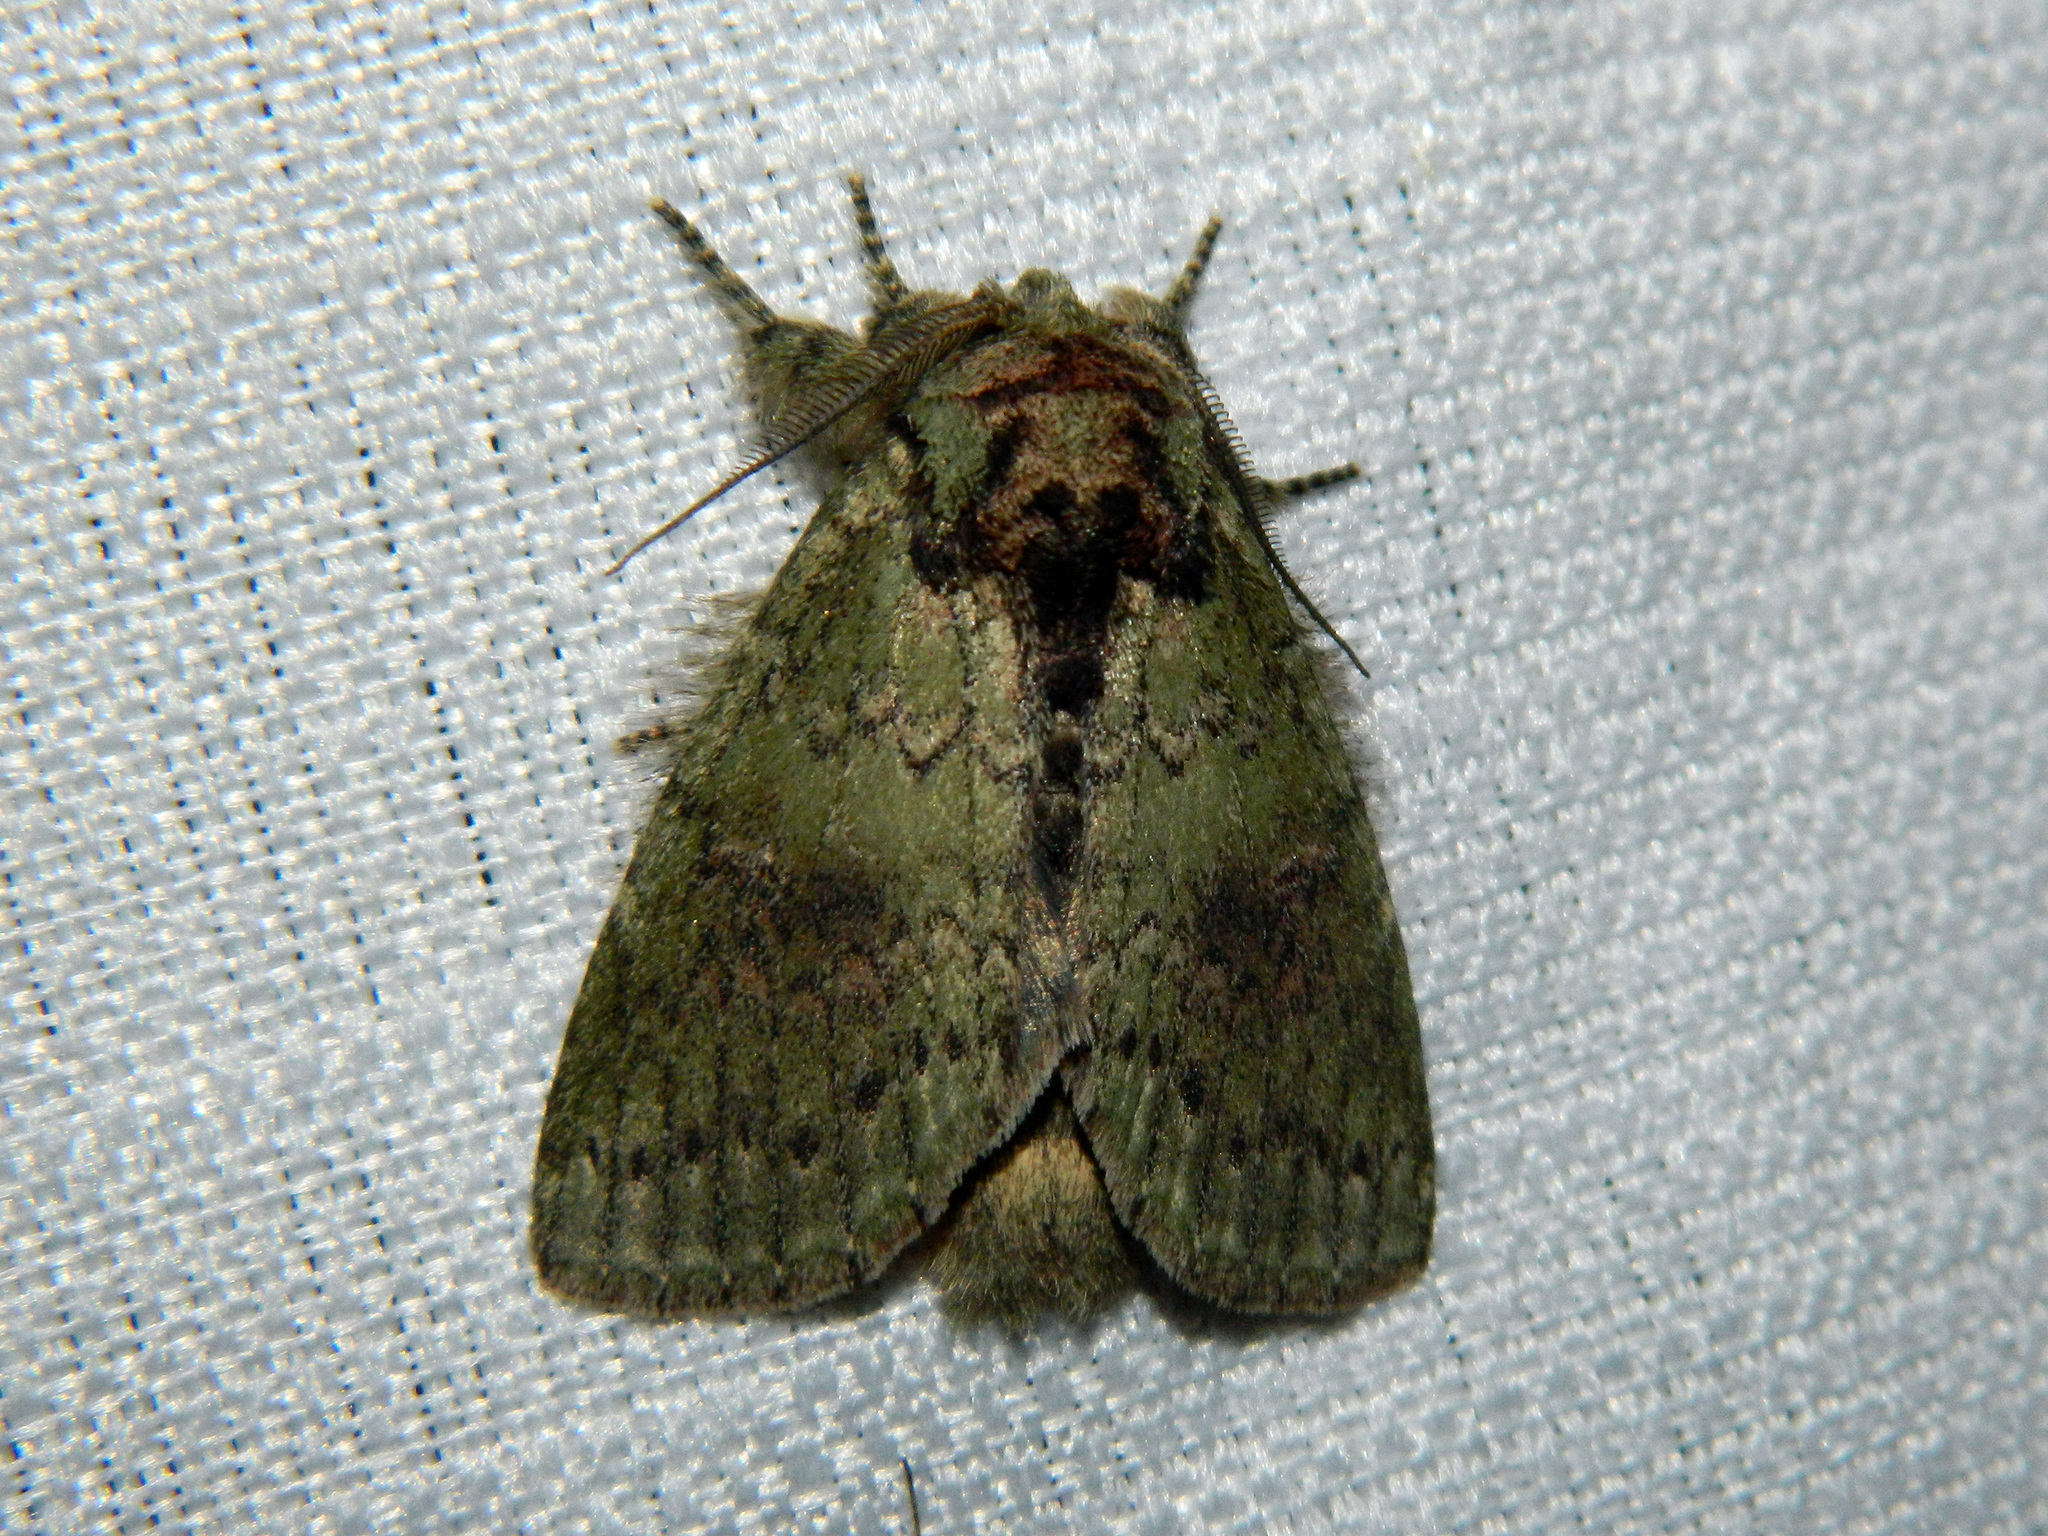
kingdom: Animalia
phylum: Arthropoda
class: Insecta
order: Lepidoptera
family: Notodontidae
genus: Disphragis
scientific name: Disphragis Cecrita biundata
